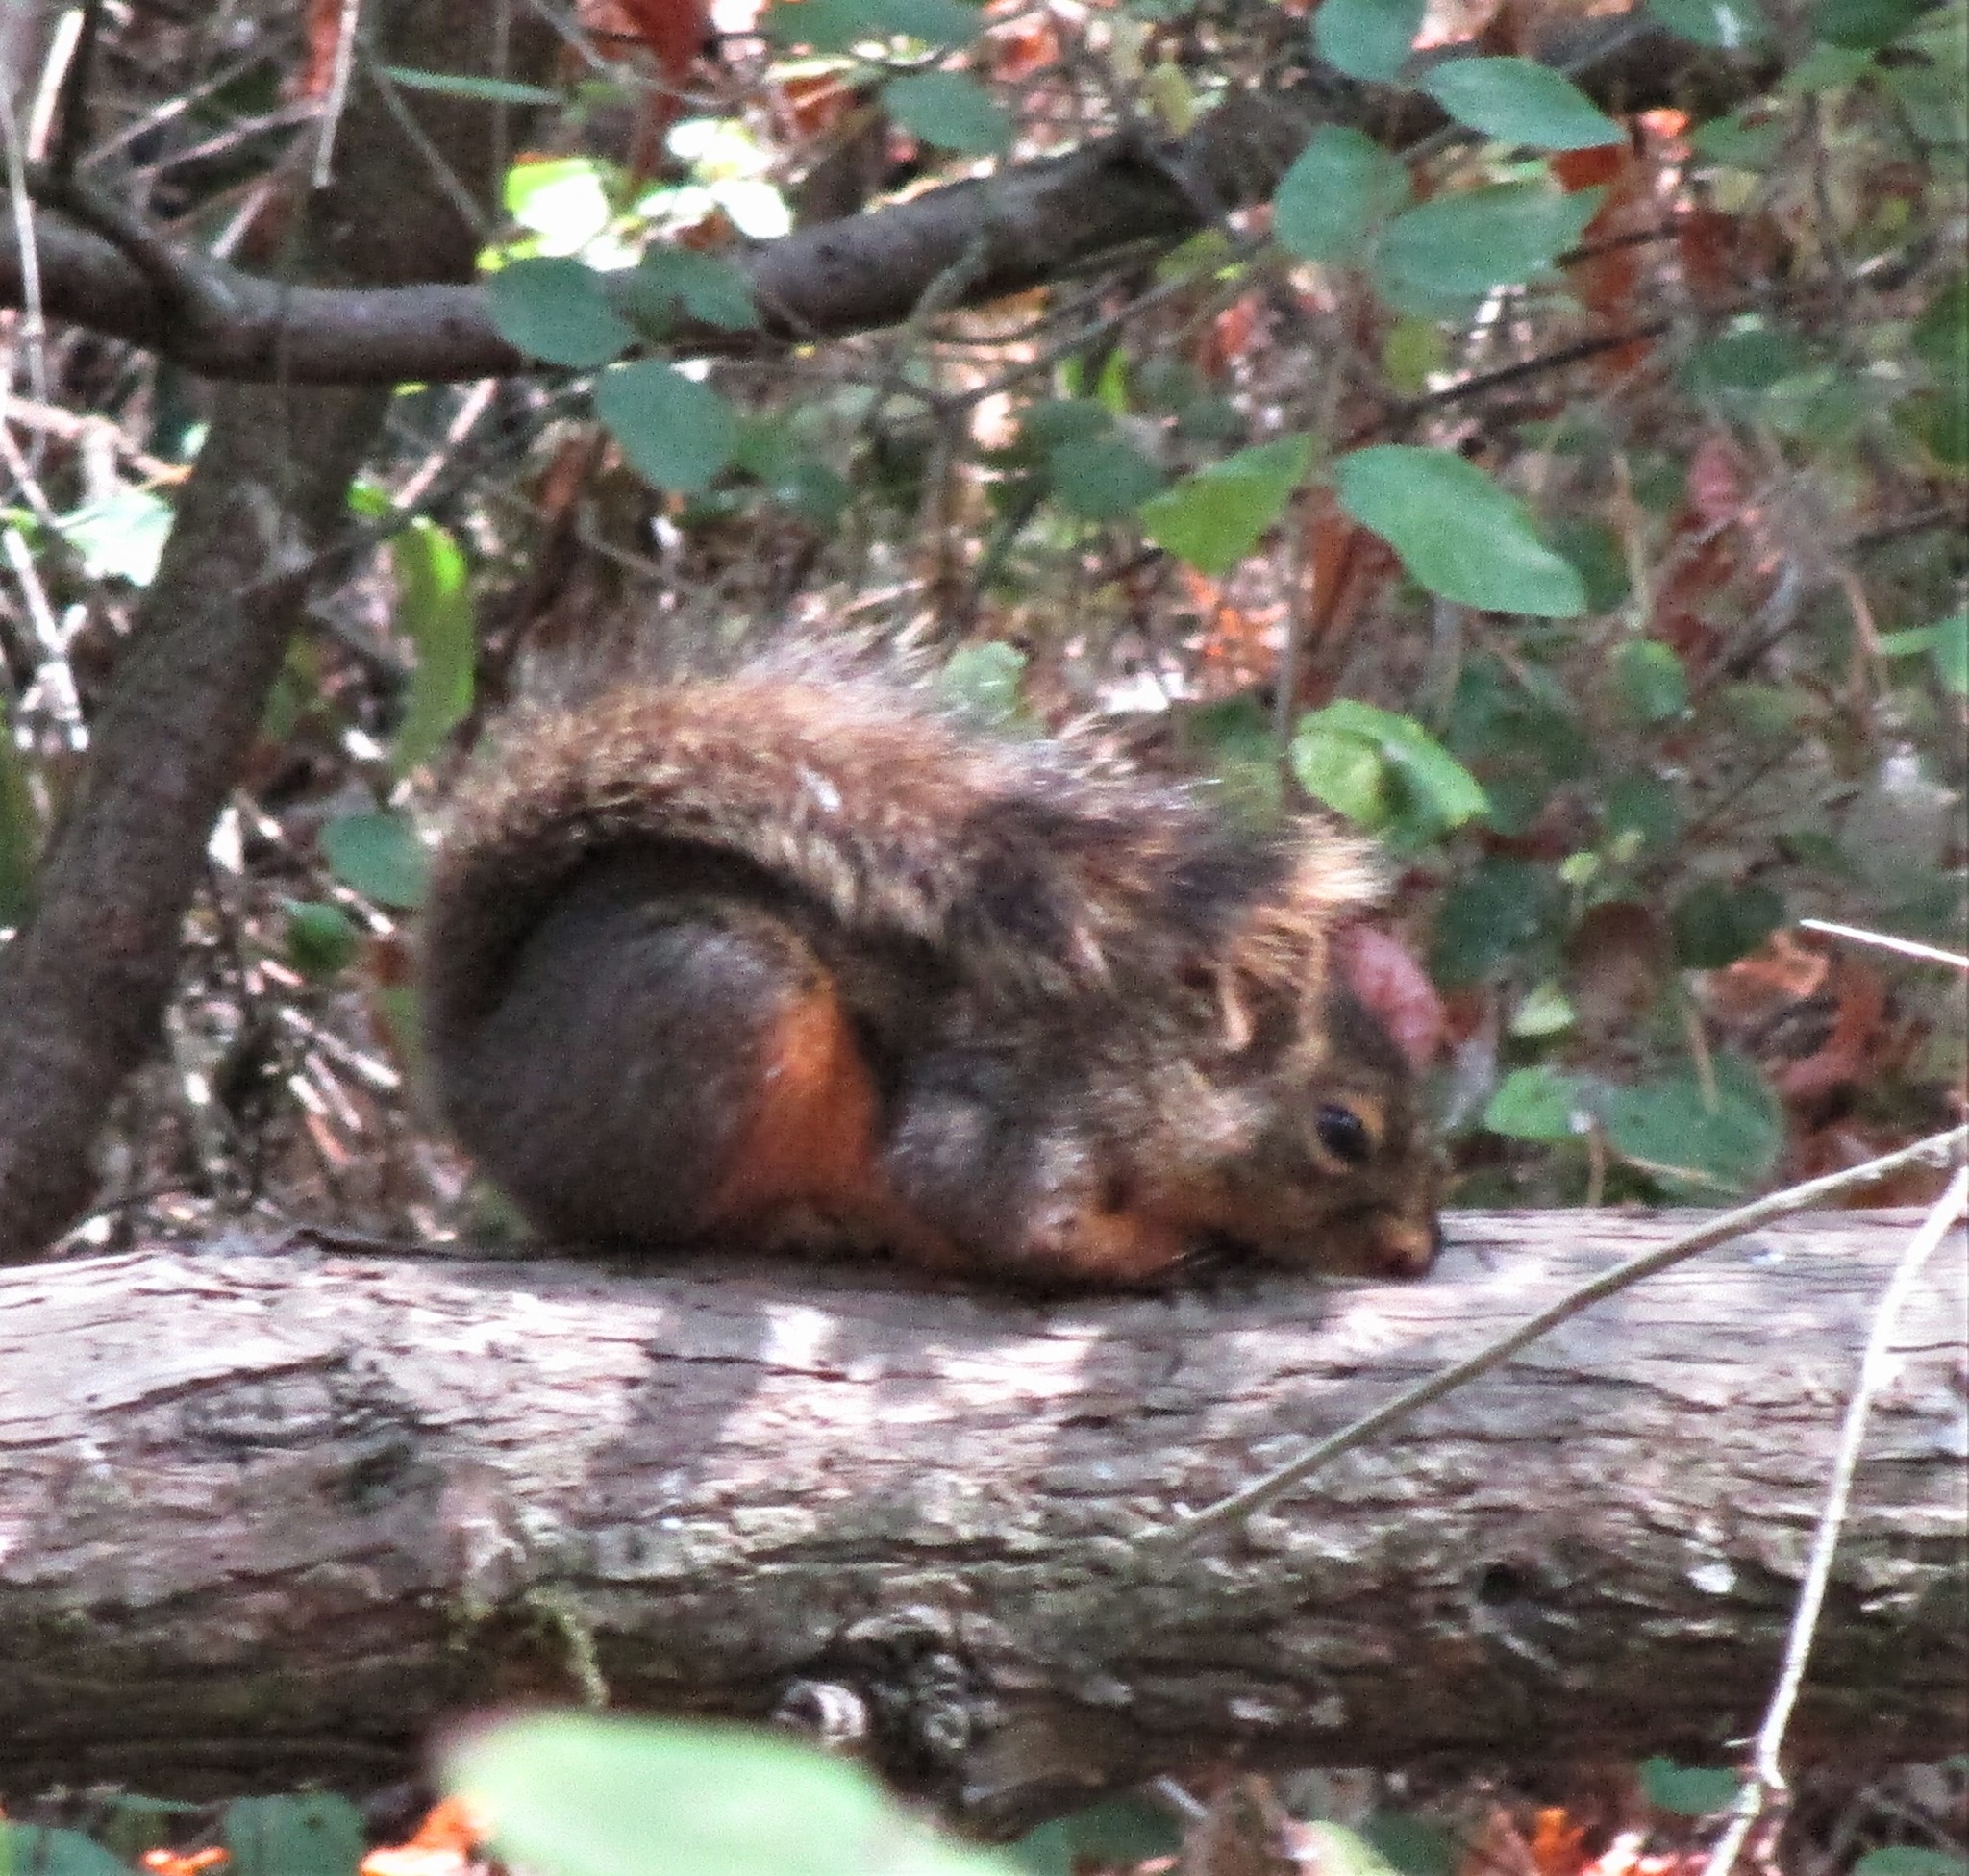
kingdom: Animalia
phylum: Chordata
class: Mammalia
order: Rodentia
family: Sciuridae
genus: Tamiasciurus
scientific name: Tamiasciurus douglasii
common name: Douglas's squirrel
